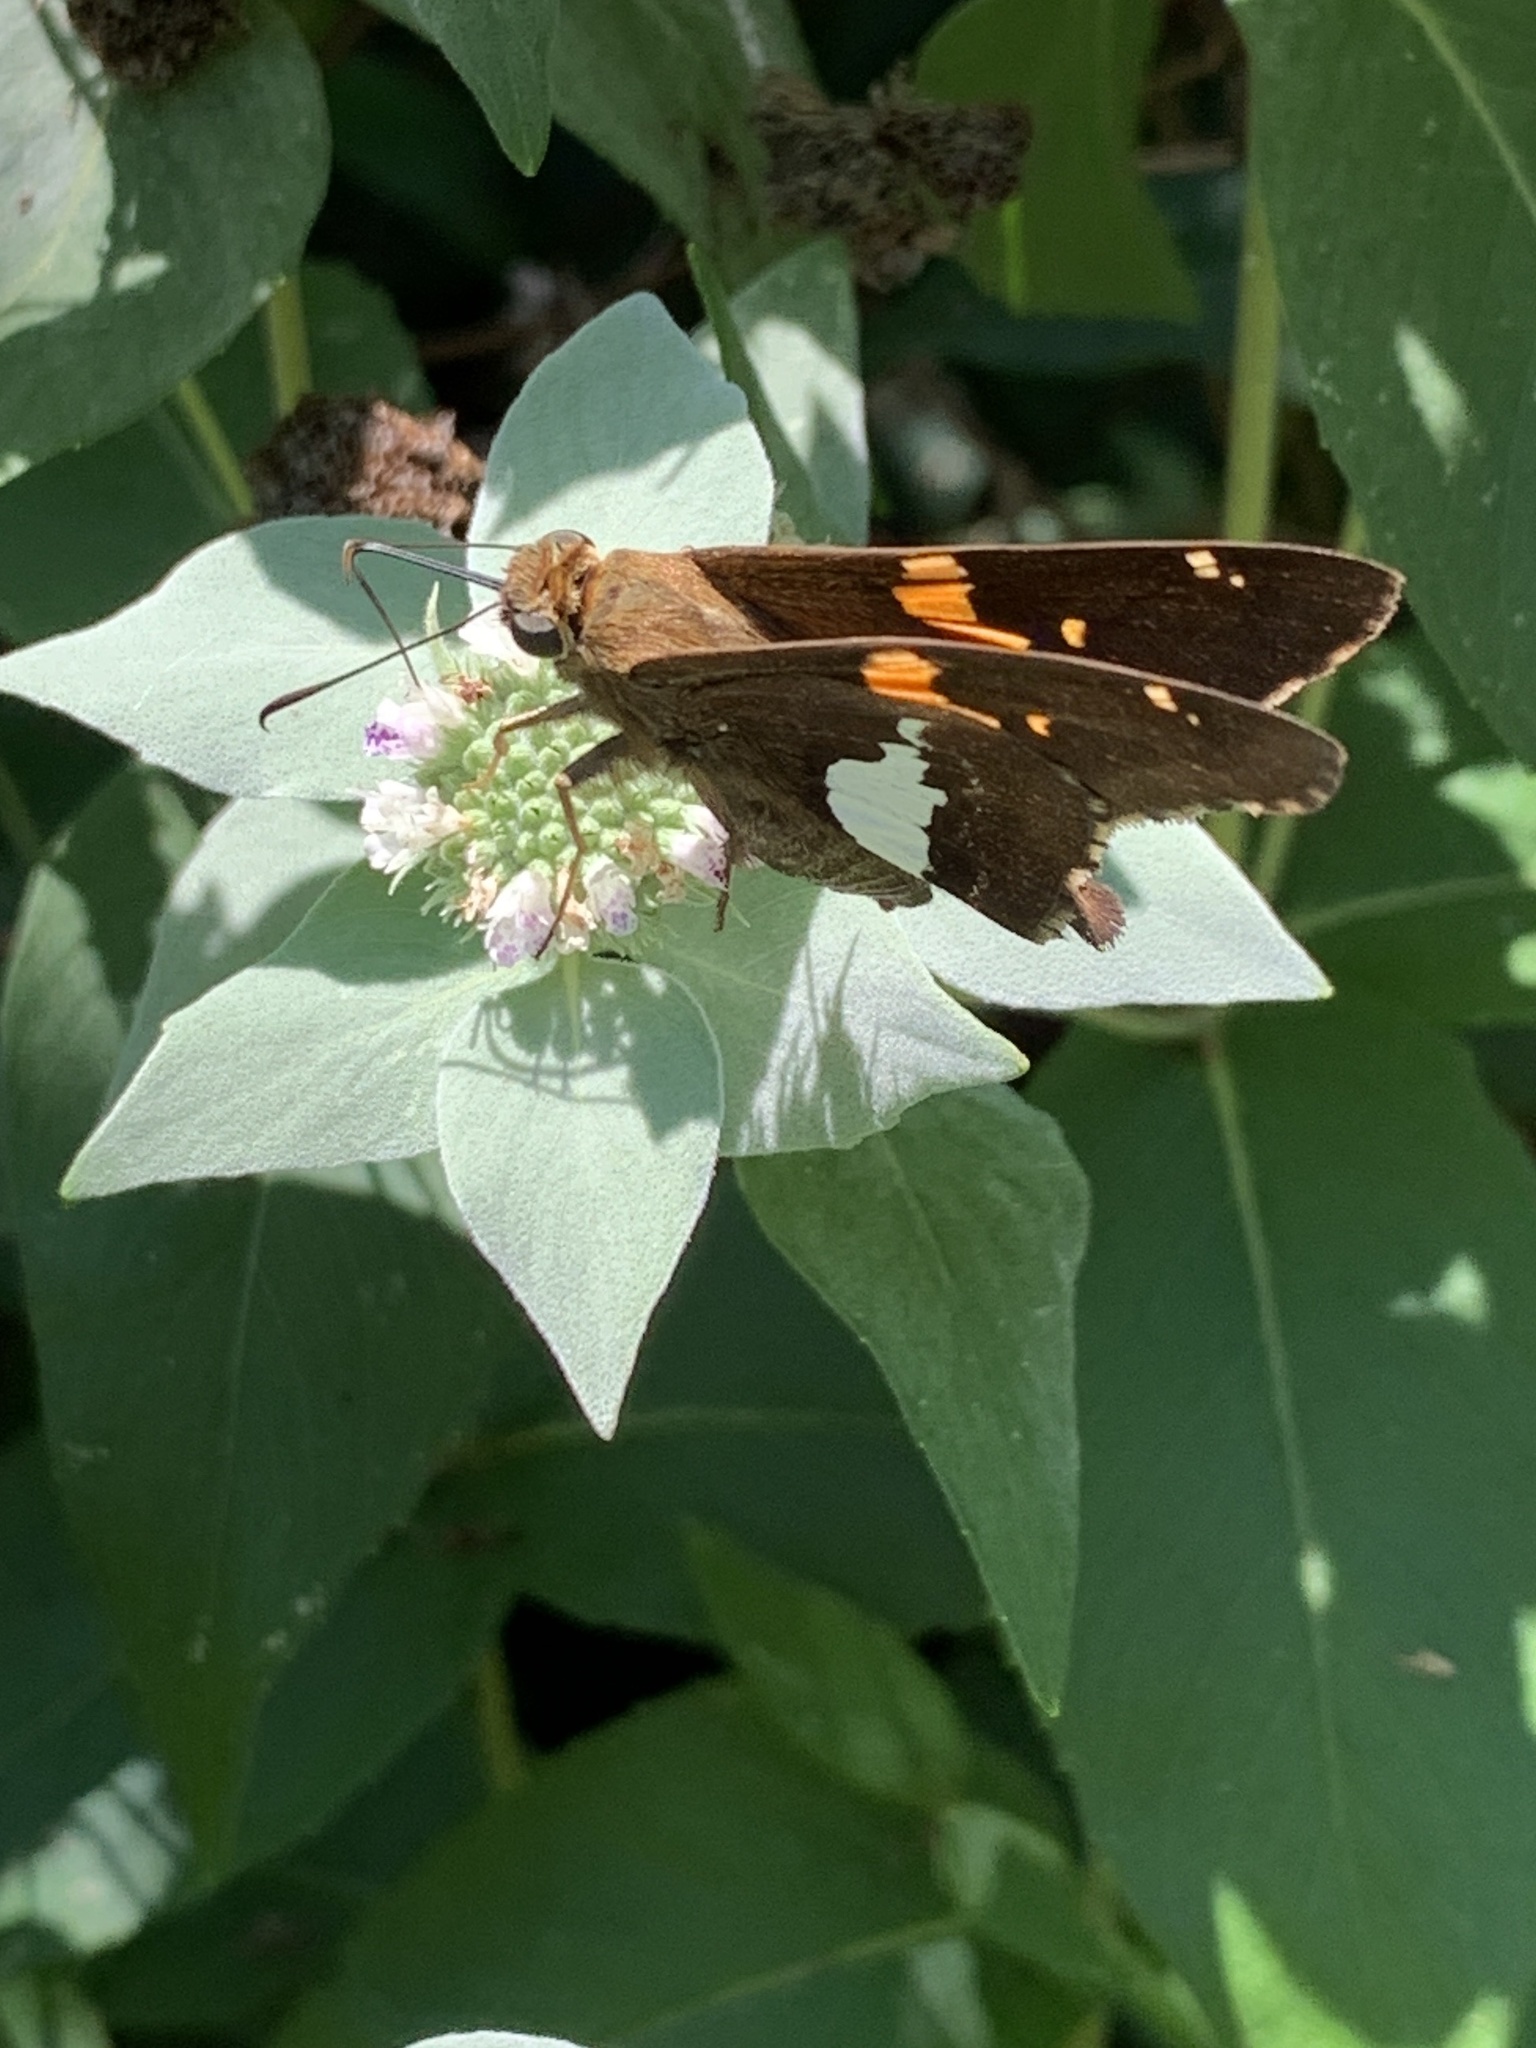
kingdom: Animalia
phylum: Arthropoda
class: Insecta
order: Lepidoptera
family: Hesperiidae
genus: Epargyreus
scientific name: Epargyreus clarus
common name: Silver-spotted skipper
